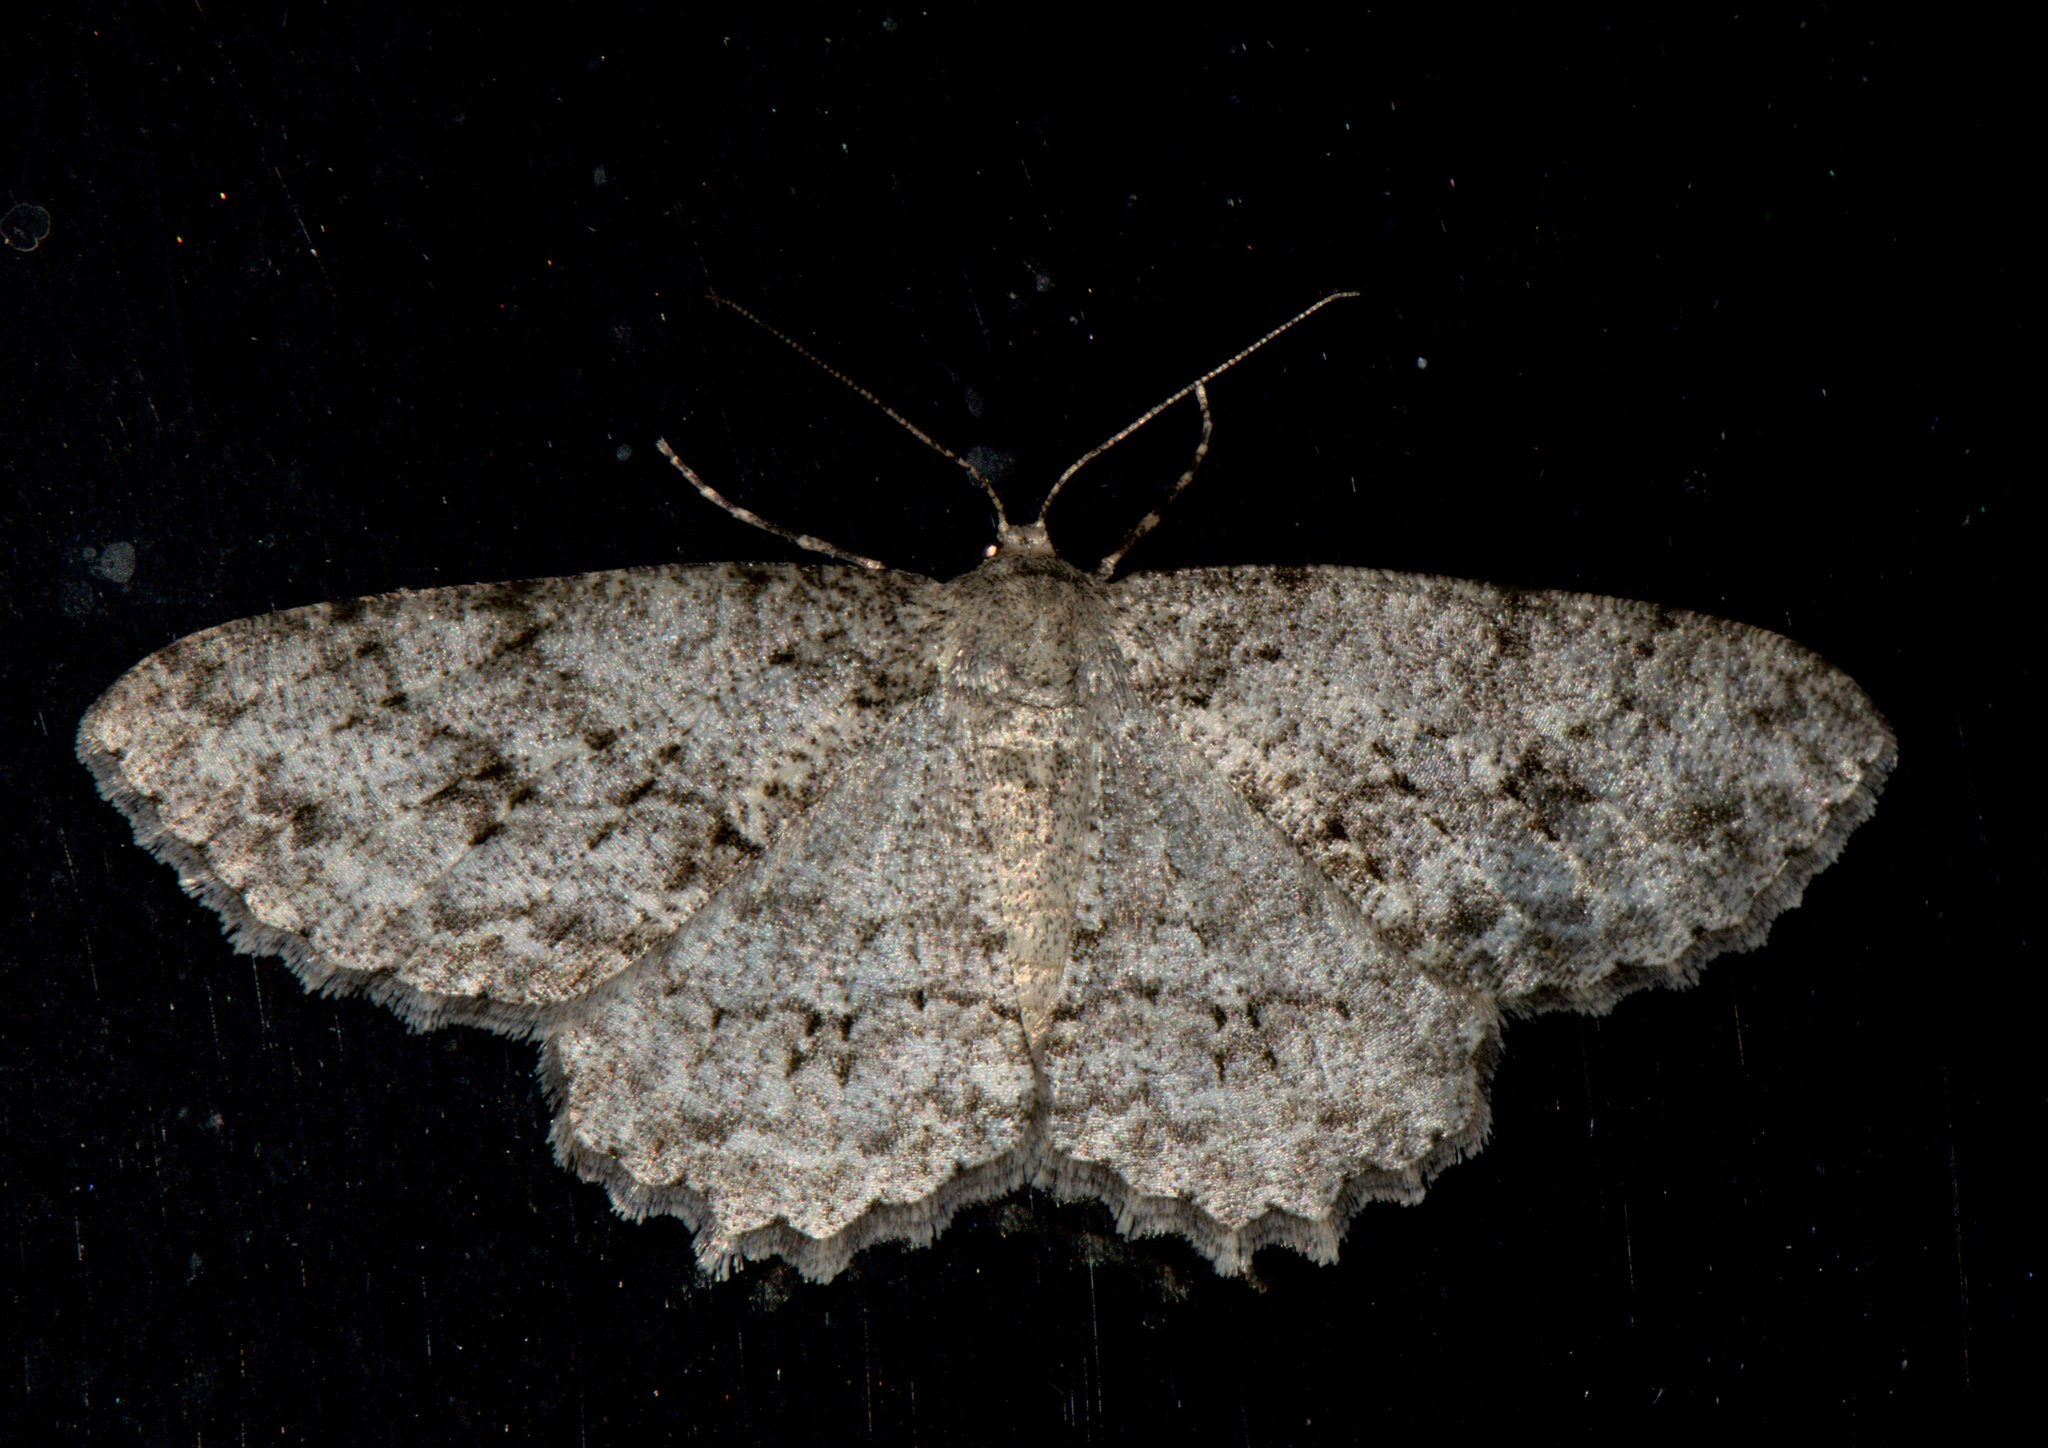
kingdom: Animalia
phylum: Arthropoda
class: Insecta
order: Lepidoptera
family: Geometridae
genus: Ectropis
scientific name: Ectropis crepuscularia
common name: Engrailed
